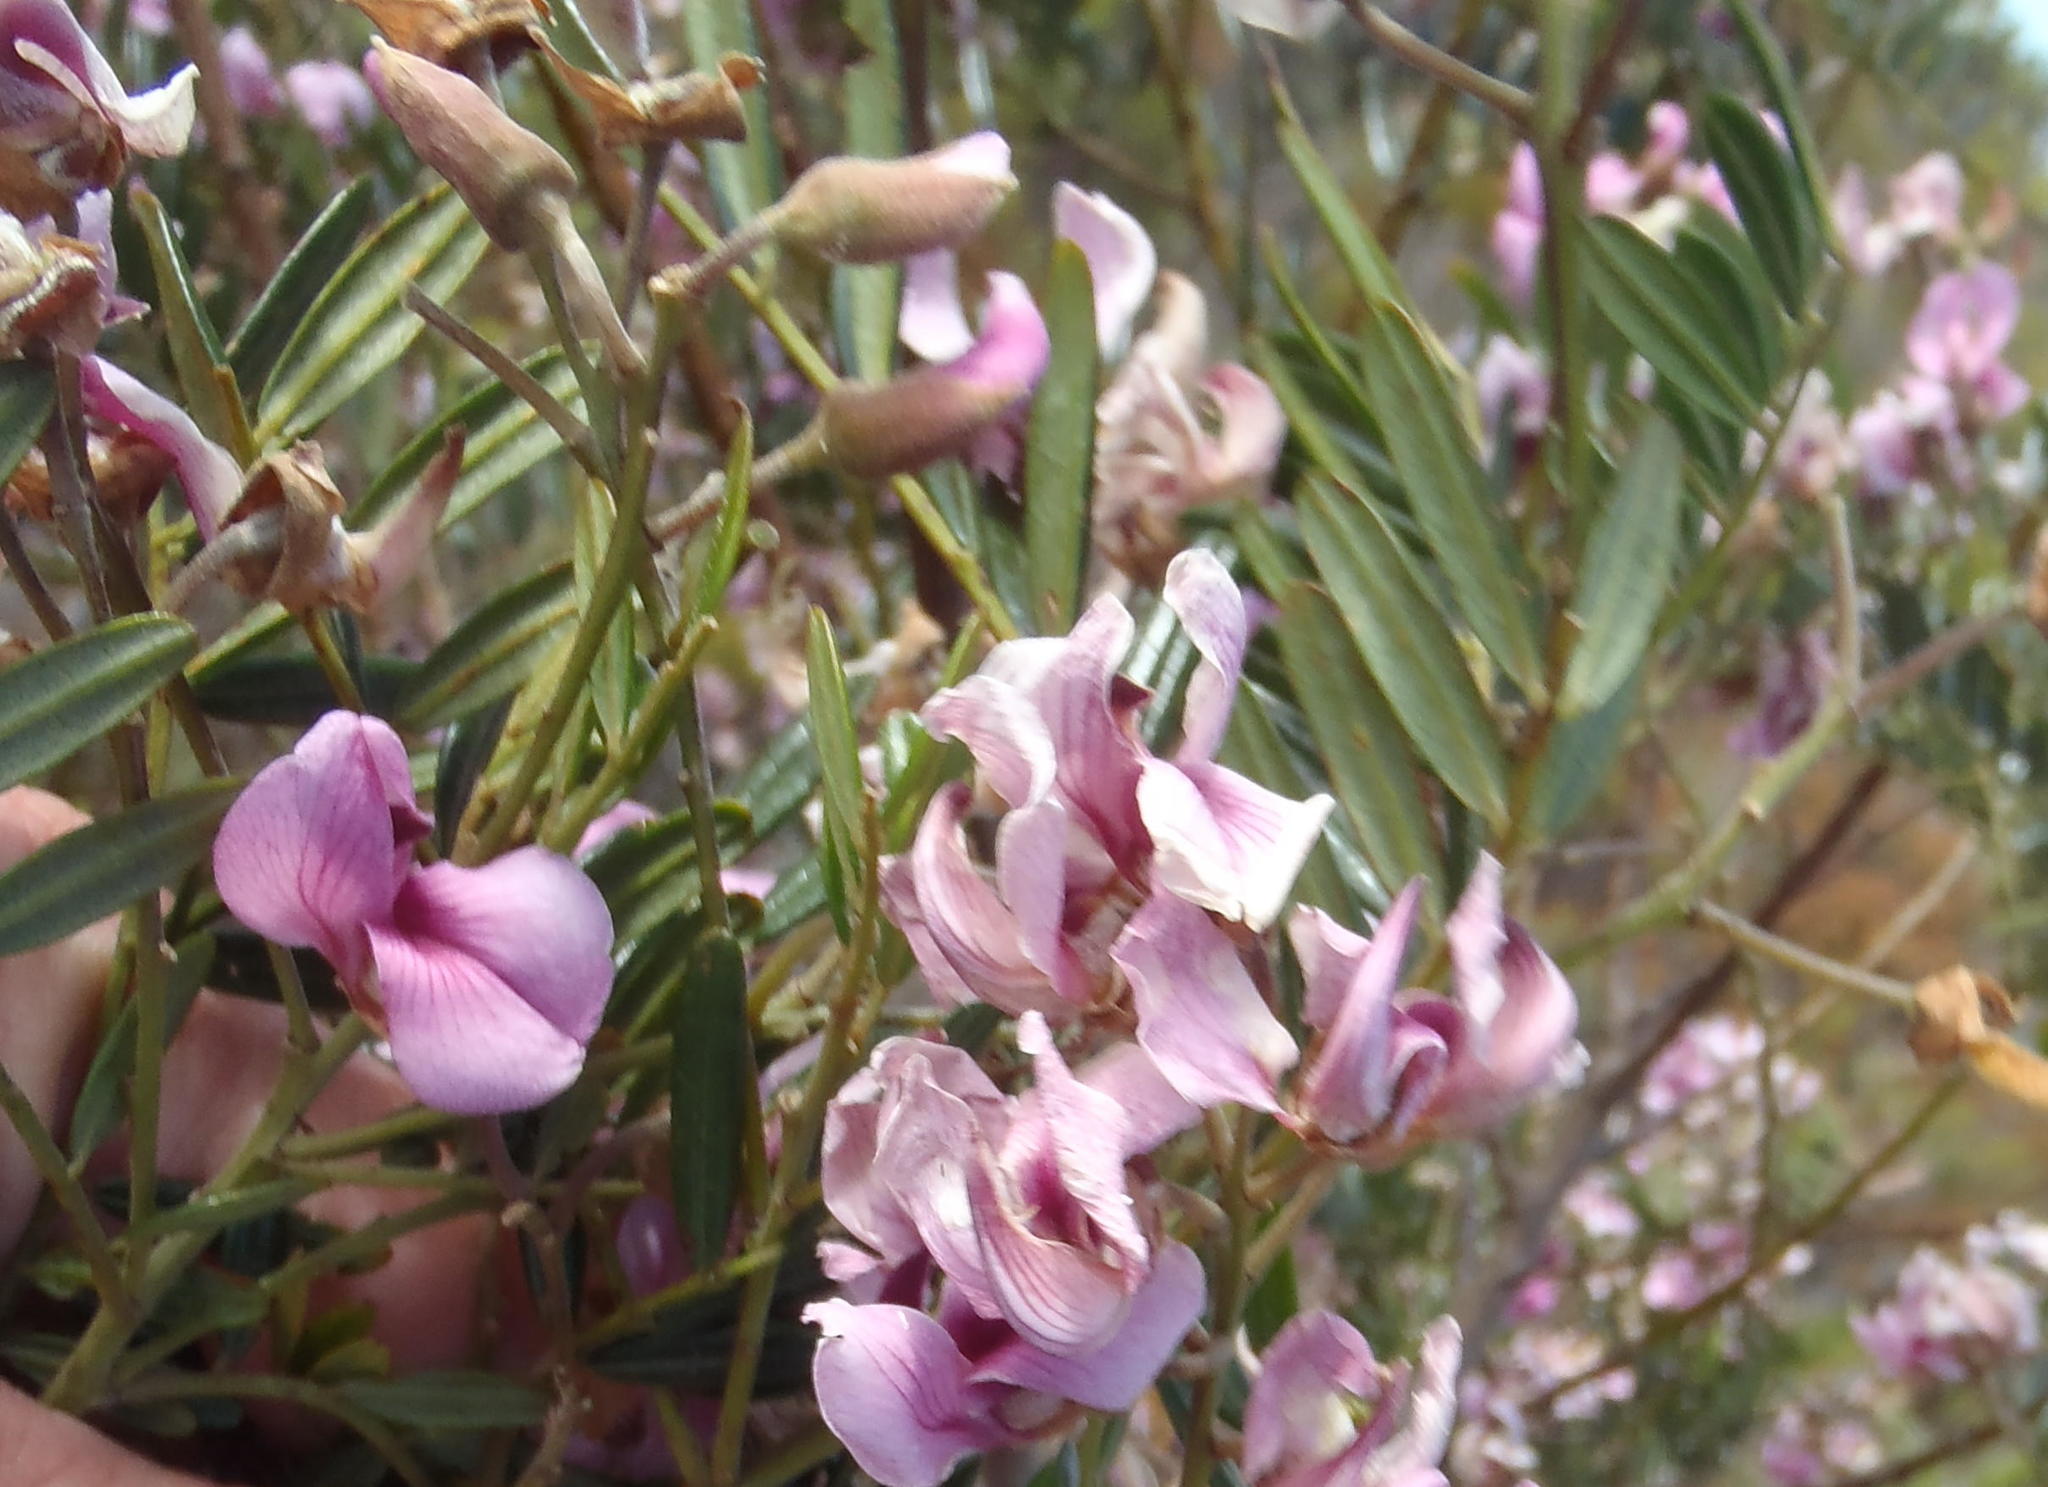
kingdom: Plantae
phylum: Tracheophyta
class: Magnoliopsida
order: Fabales
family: Fabaceae
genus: Virgilia
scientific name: Virgilia oroboides
